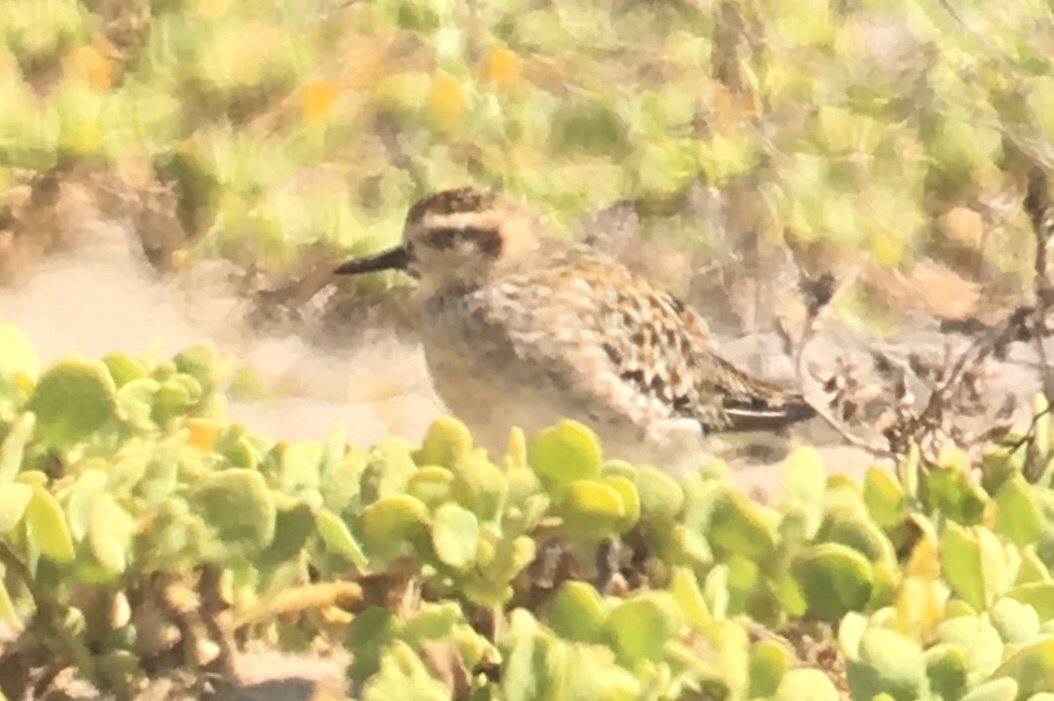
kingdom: Animalia
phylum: Chordata
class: Aves
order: Charadriiformes
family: Charadriidae
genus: Pluvialis
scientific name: Pluvialis fulva
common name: Pacific golden plover
